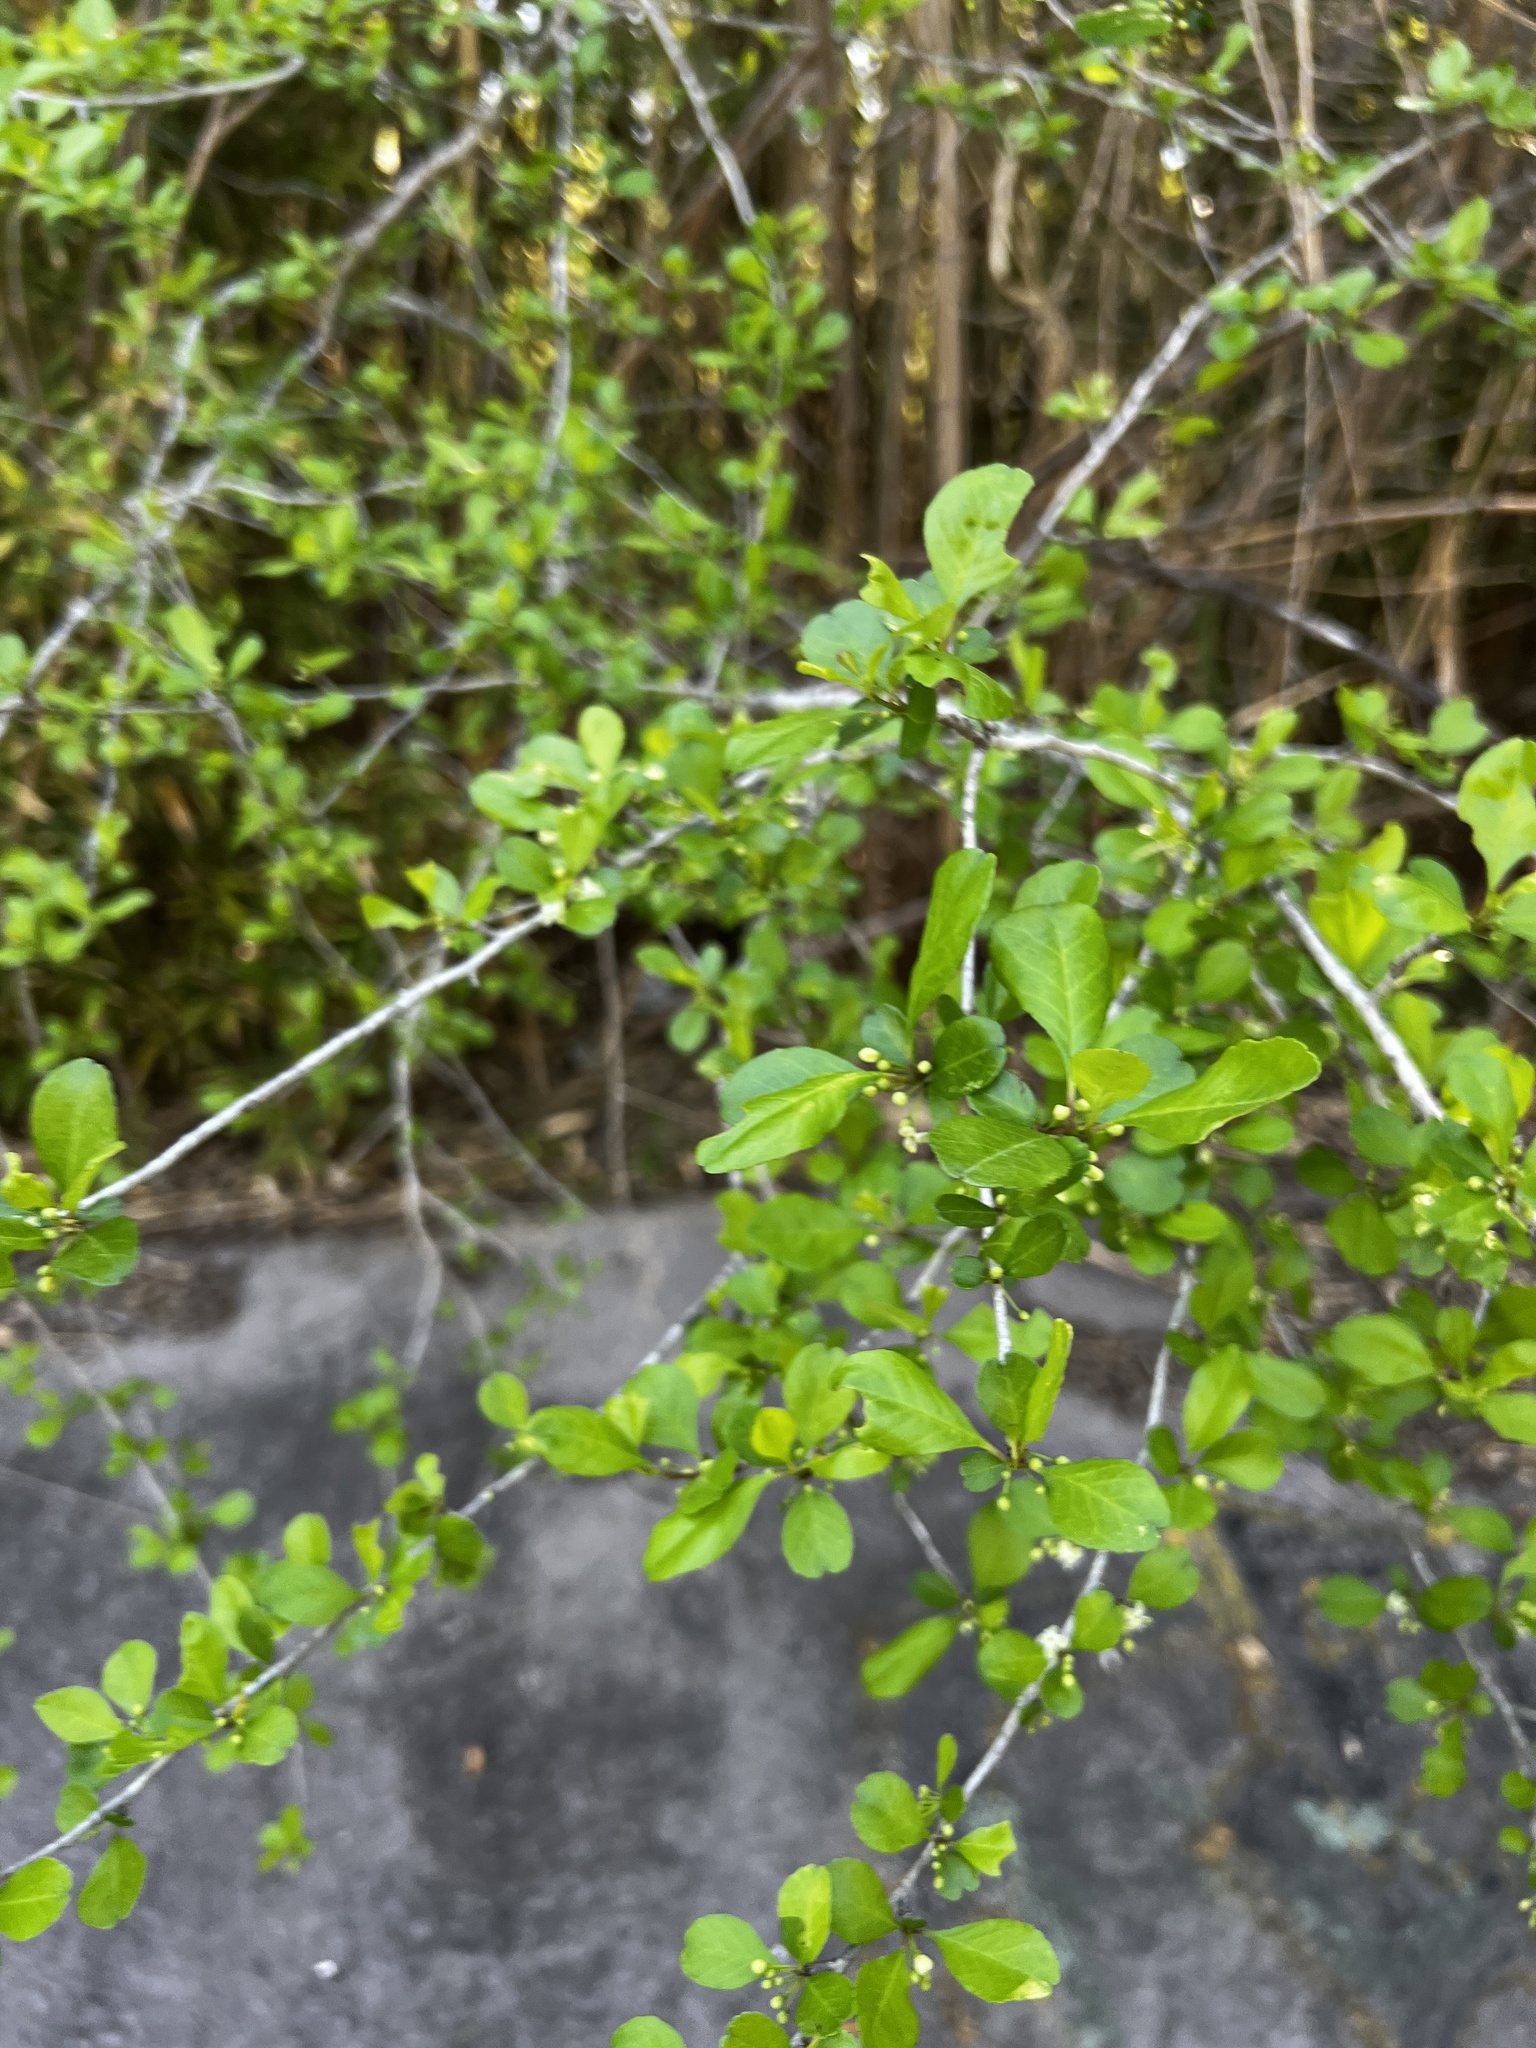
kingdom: Plantae
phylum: Tracheophyta
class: Magnoliopsida
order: Aquifoliales
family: Aquifoliaceae
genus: Ilex
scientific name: Ilex decidua
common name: Possum-haw
